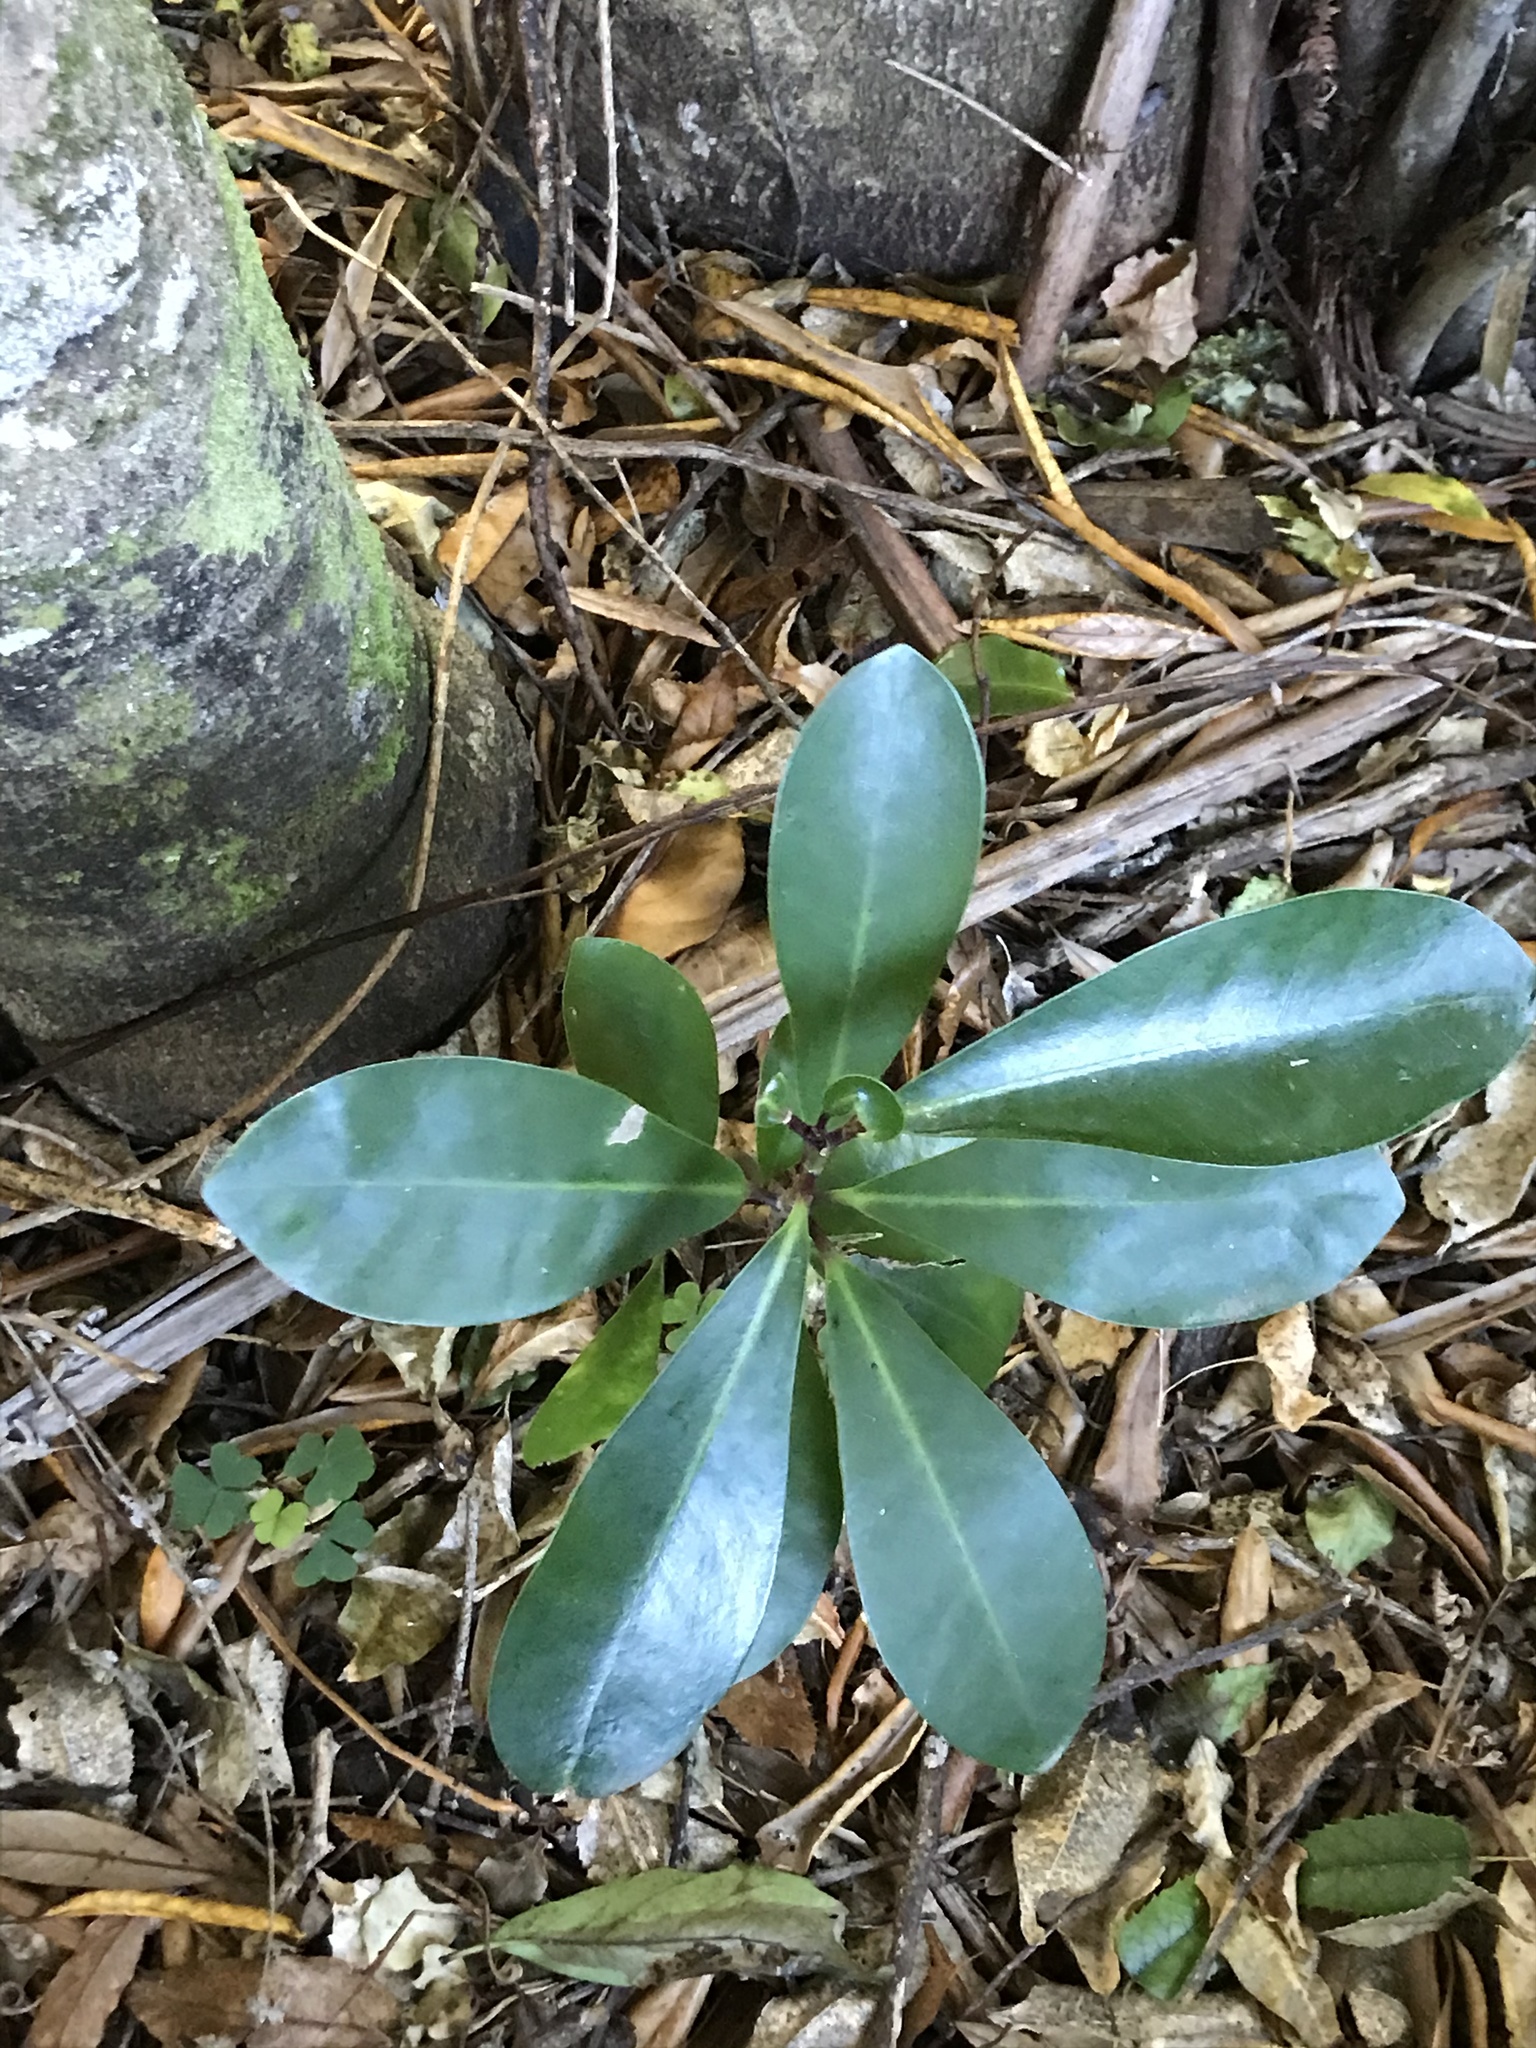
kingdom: Plantae
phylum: Tracheophyta
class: Magnoliopsida
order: Cucurbitales
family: Corynocarpaceae
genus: Corynocarpus
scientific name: Corynocarpus laevigatus
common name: New zealand laurel
